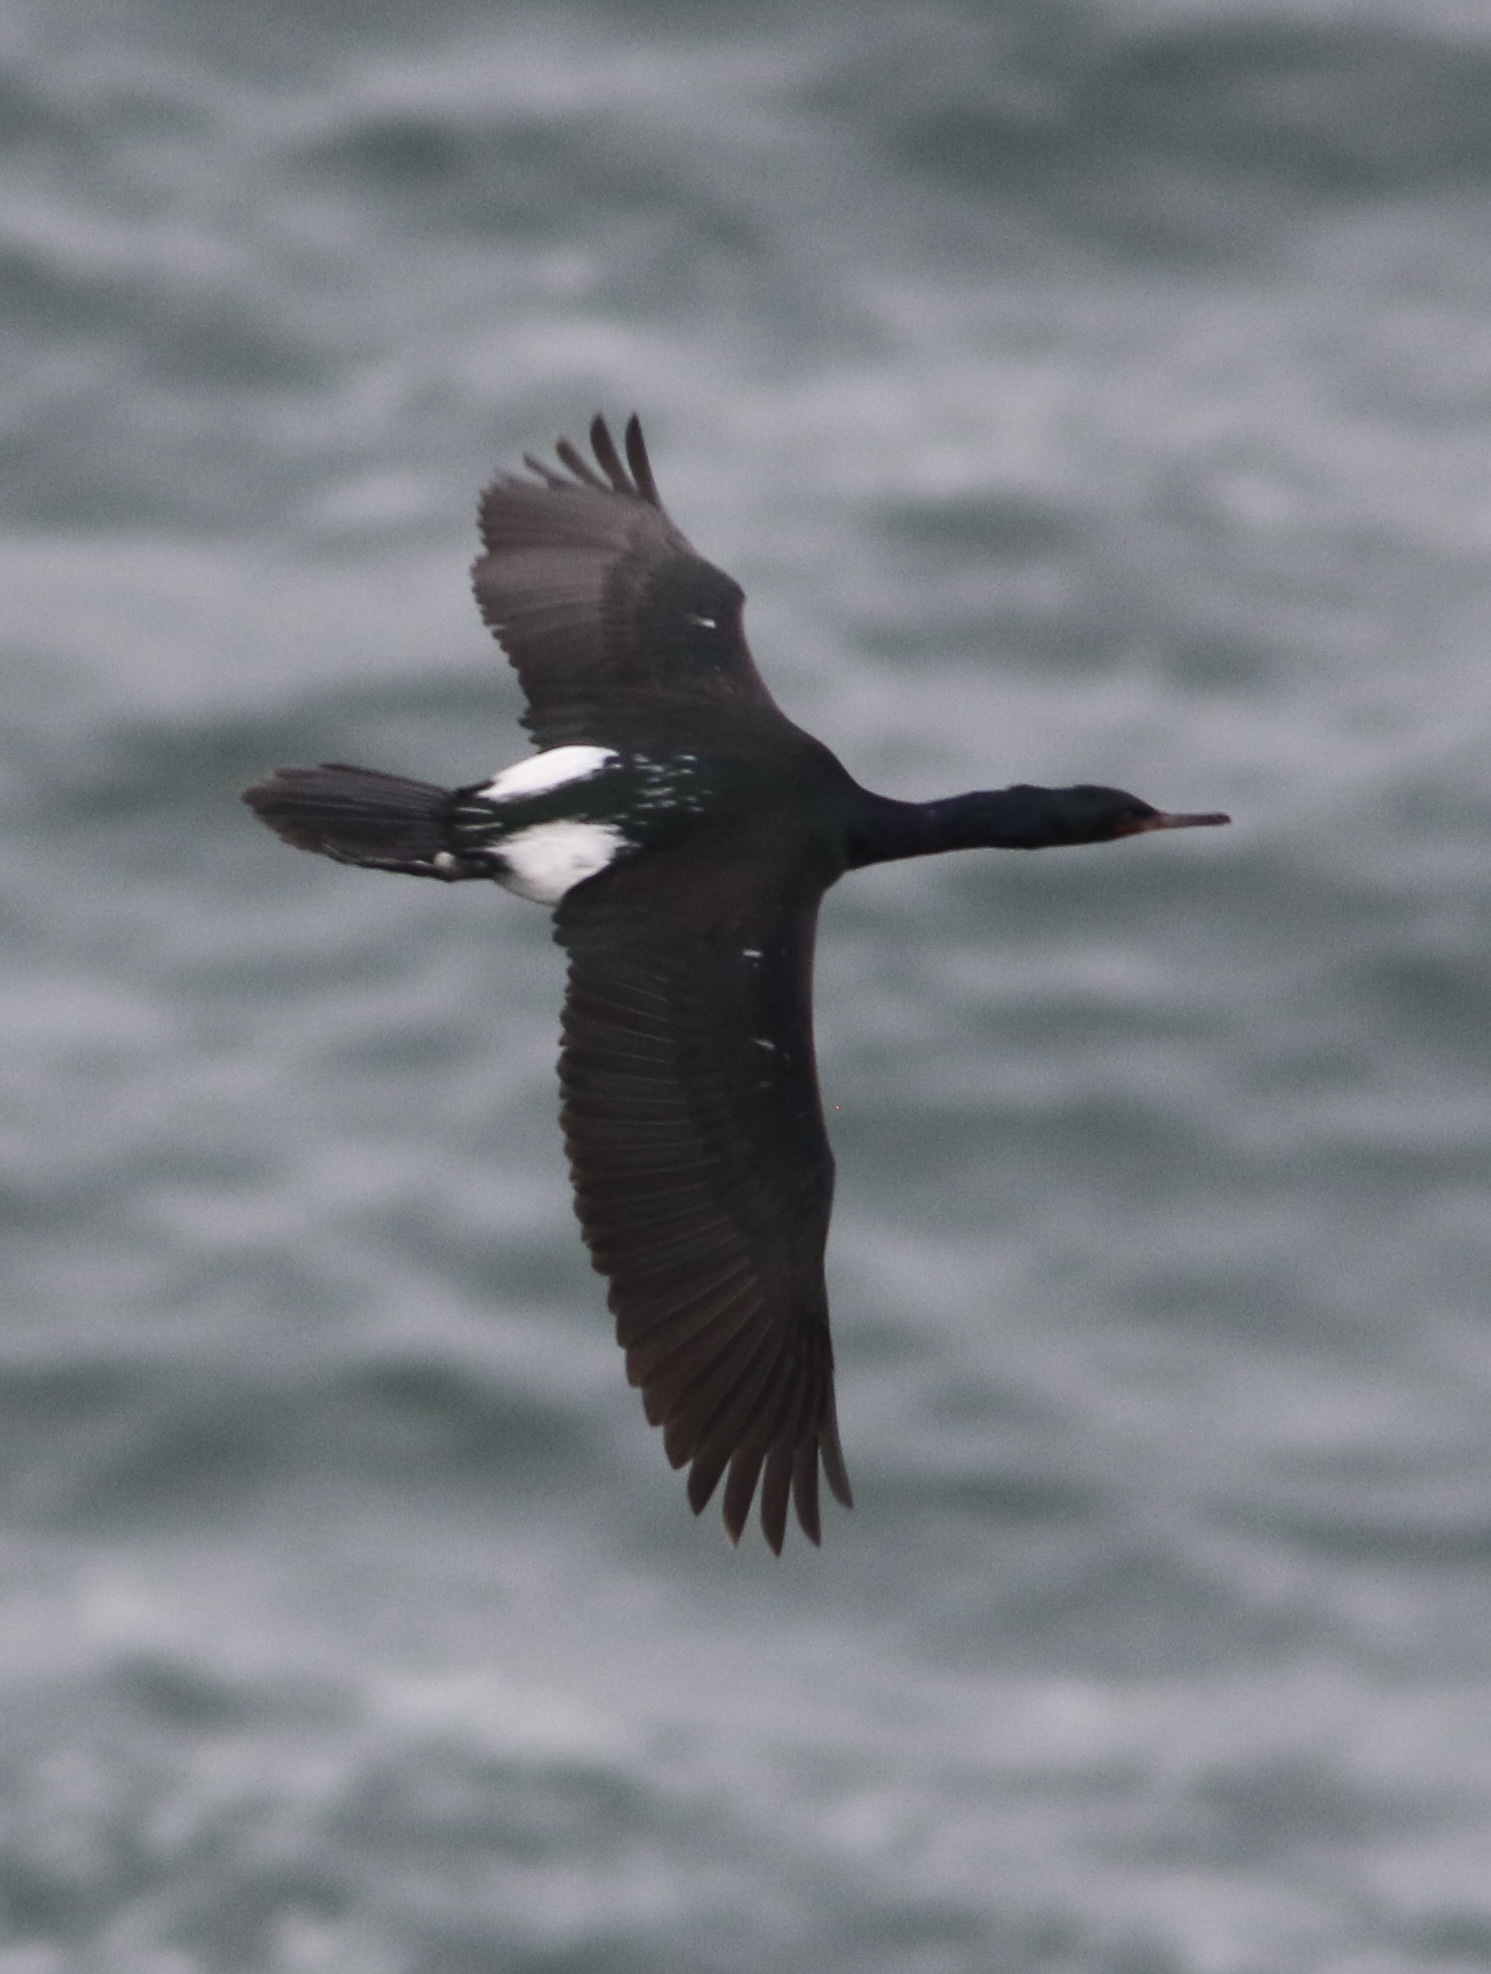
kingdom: Animalia
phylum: Chordata
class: Aves
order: Suliformes
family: Phalacrocoracidae
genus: Phalacrocorax
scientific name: Phalacrocorax pelagicus
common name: Pelagic cormorant
